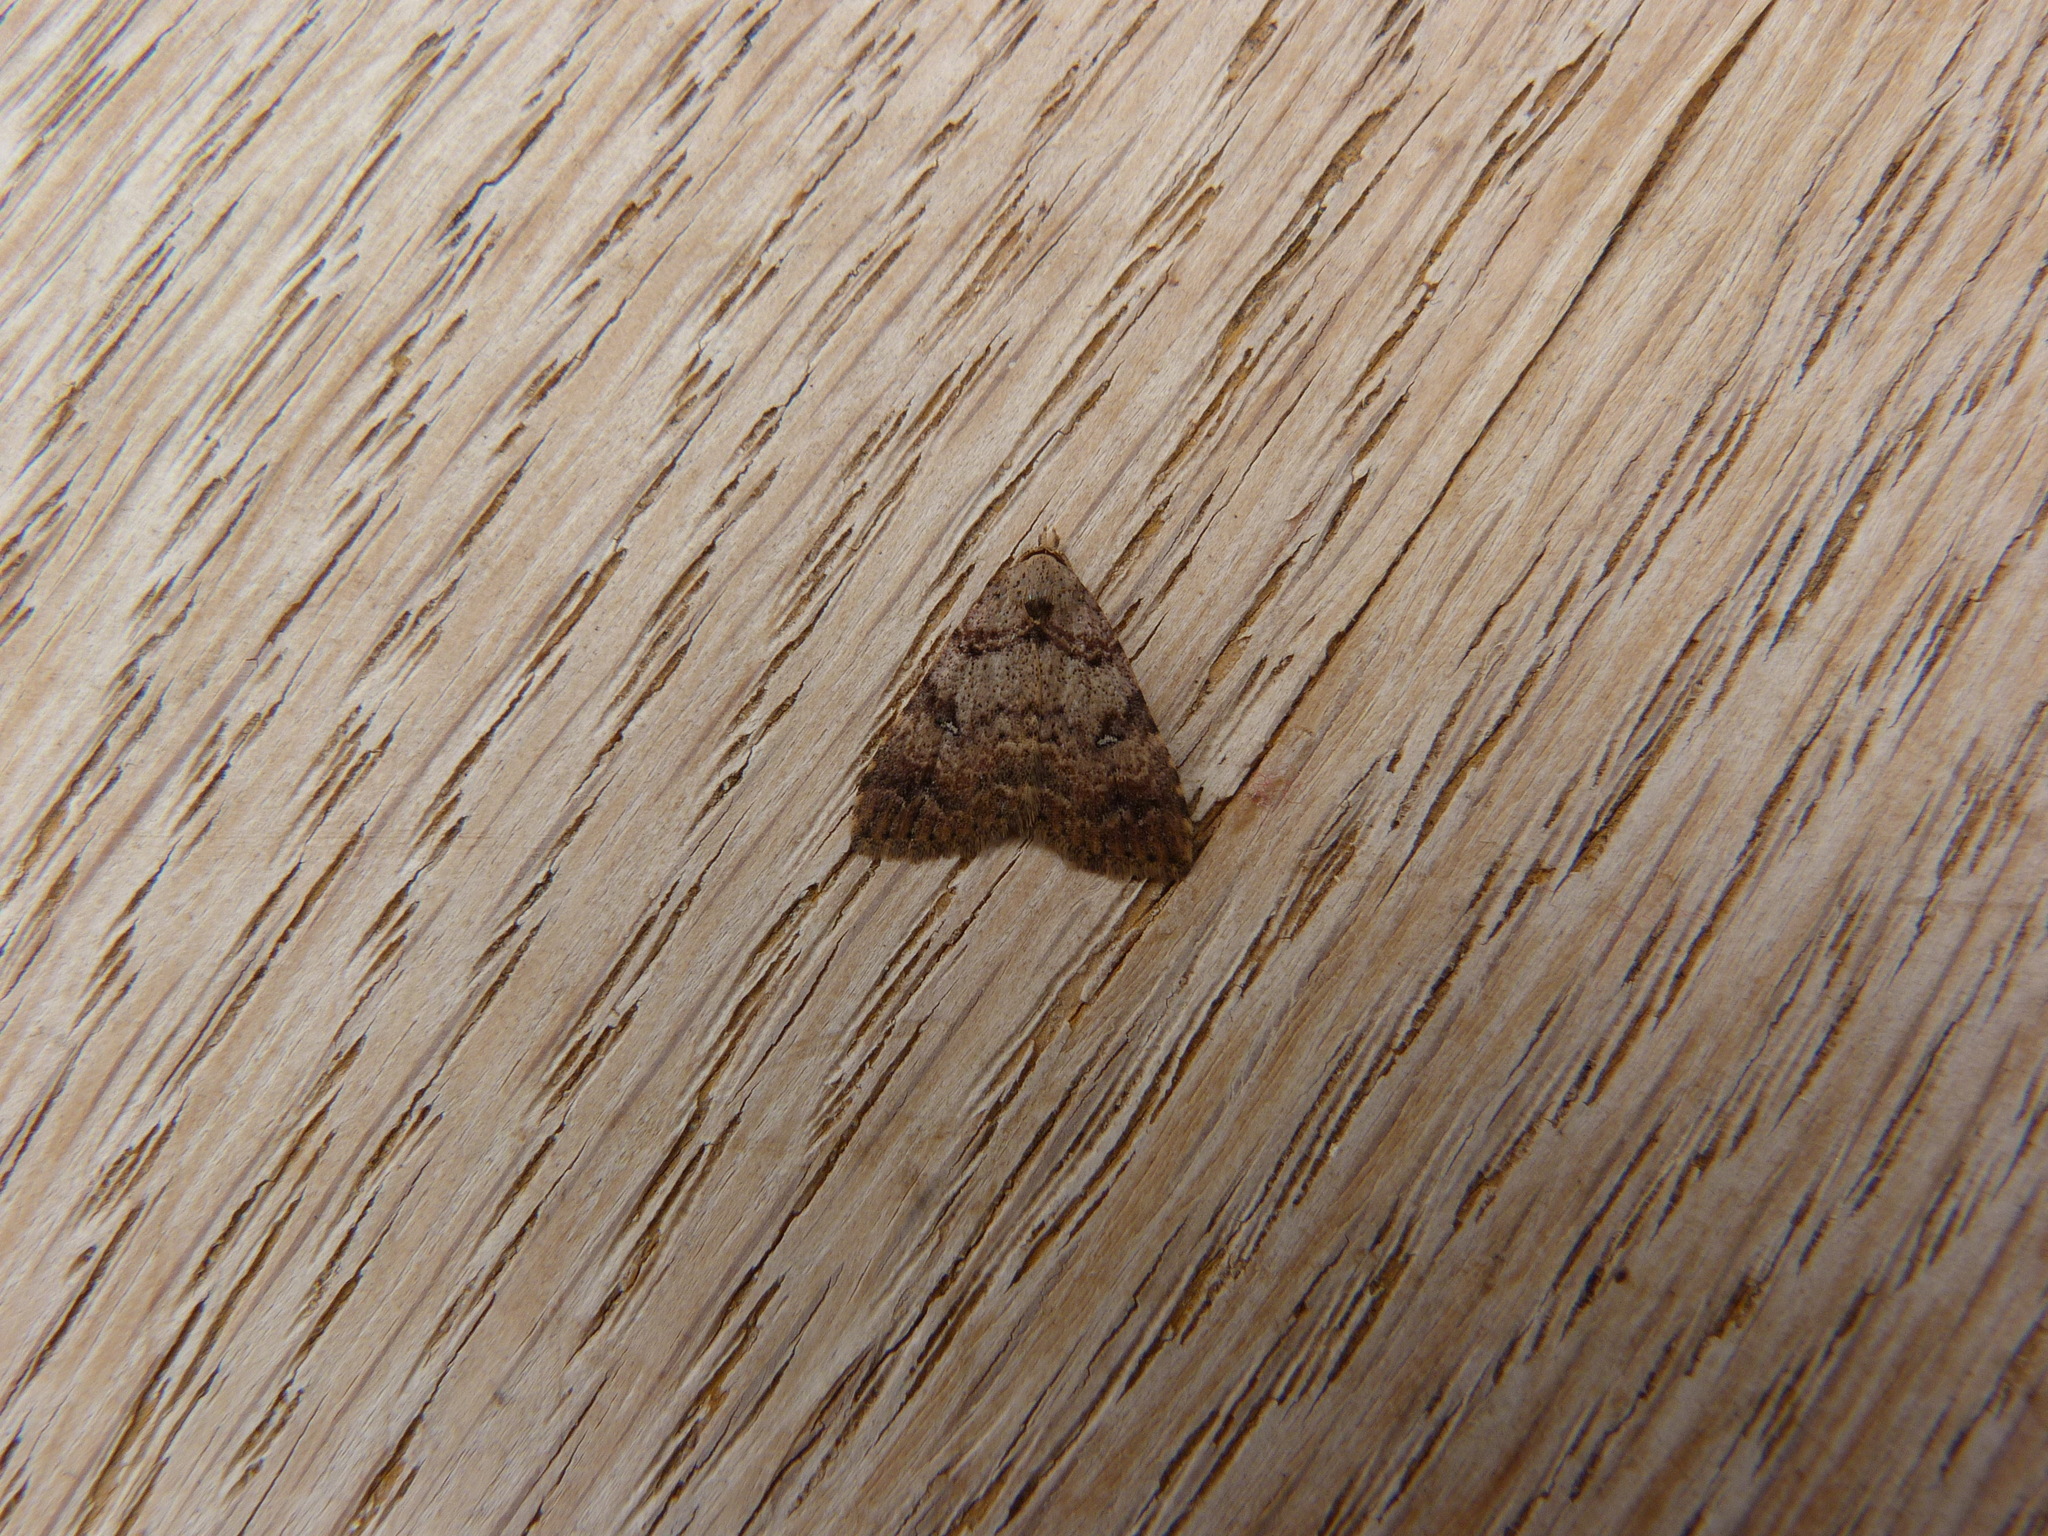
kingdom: Animalia
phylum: Arthropoda
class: Insecta
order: Lepidoptera
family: Erebidae
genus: Alapadna
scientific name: Alapadna pauropis
